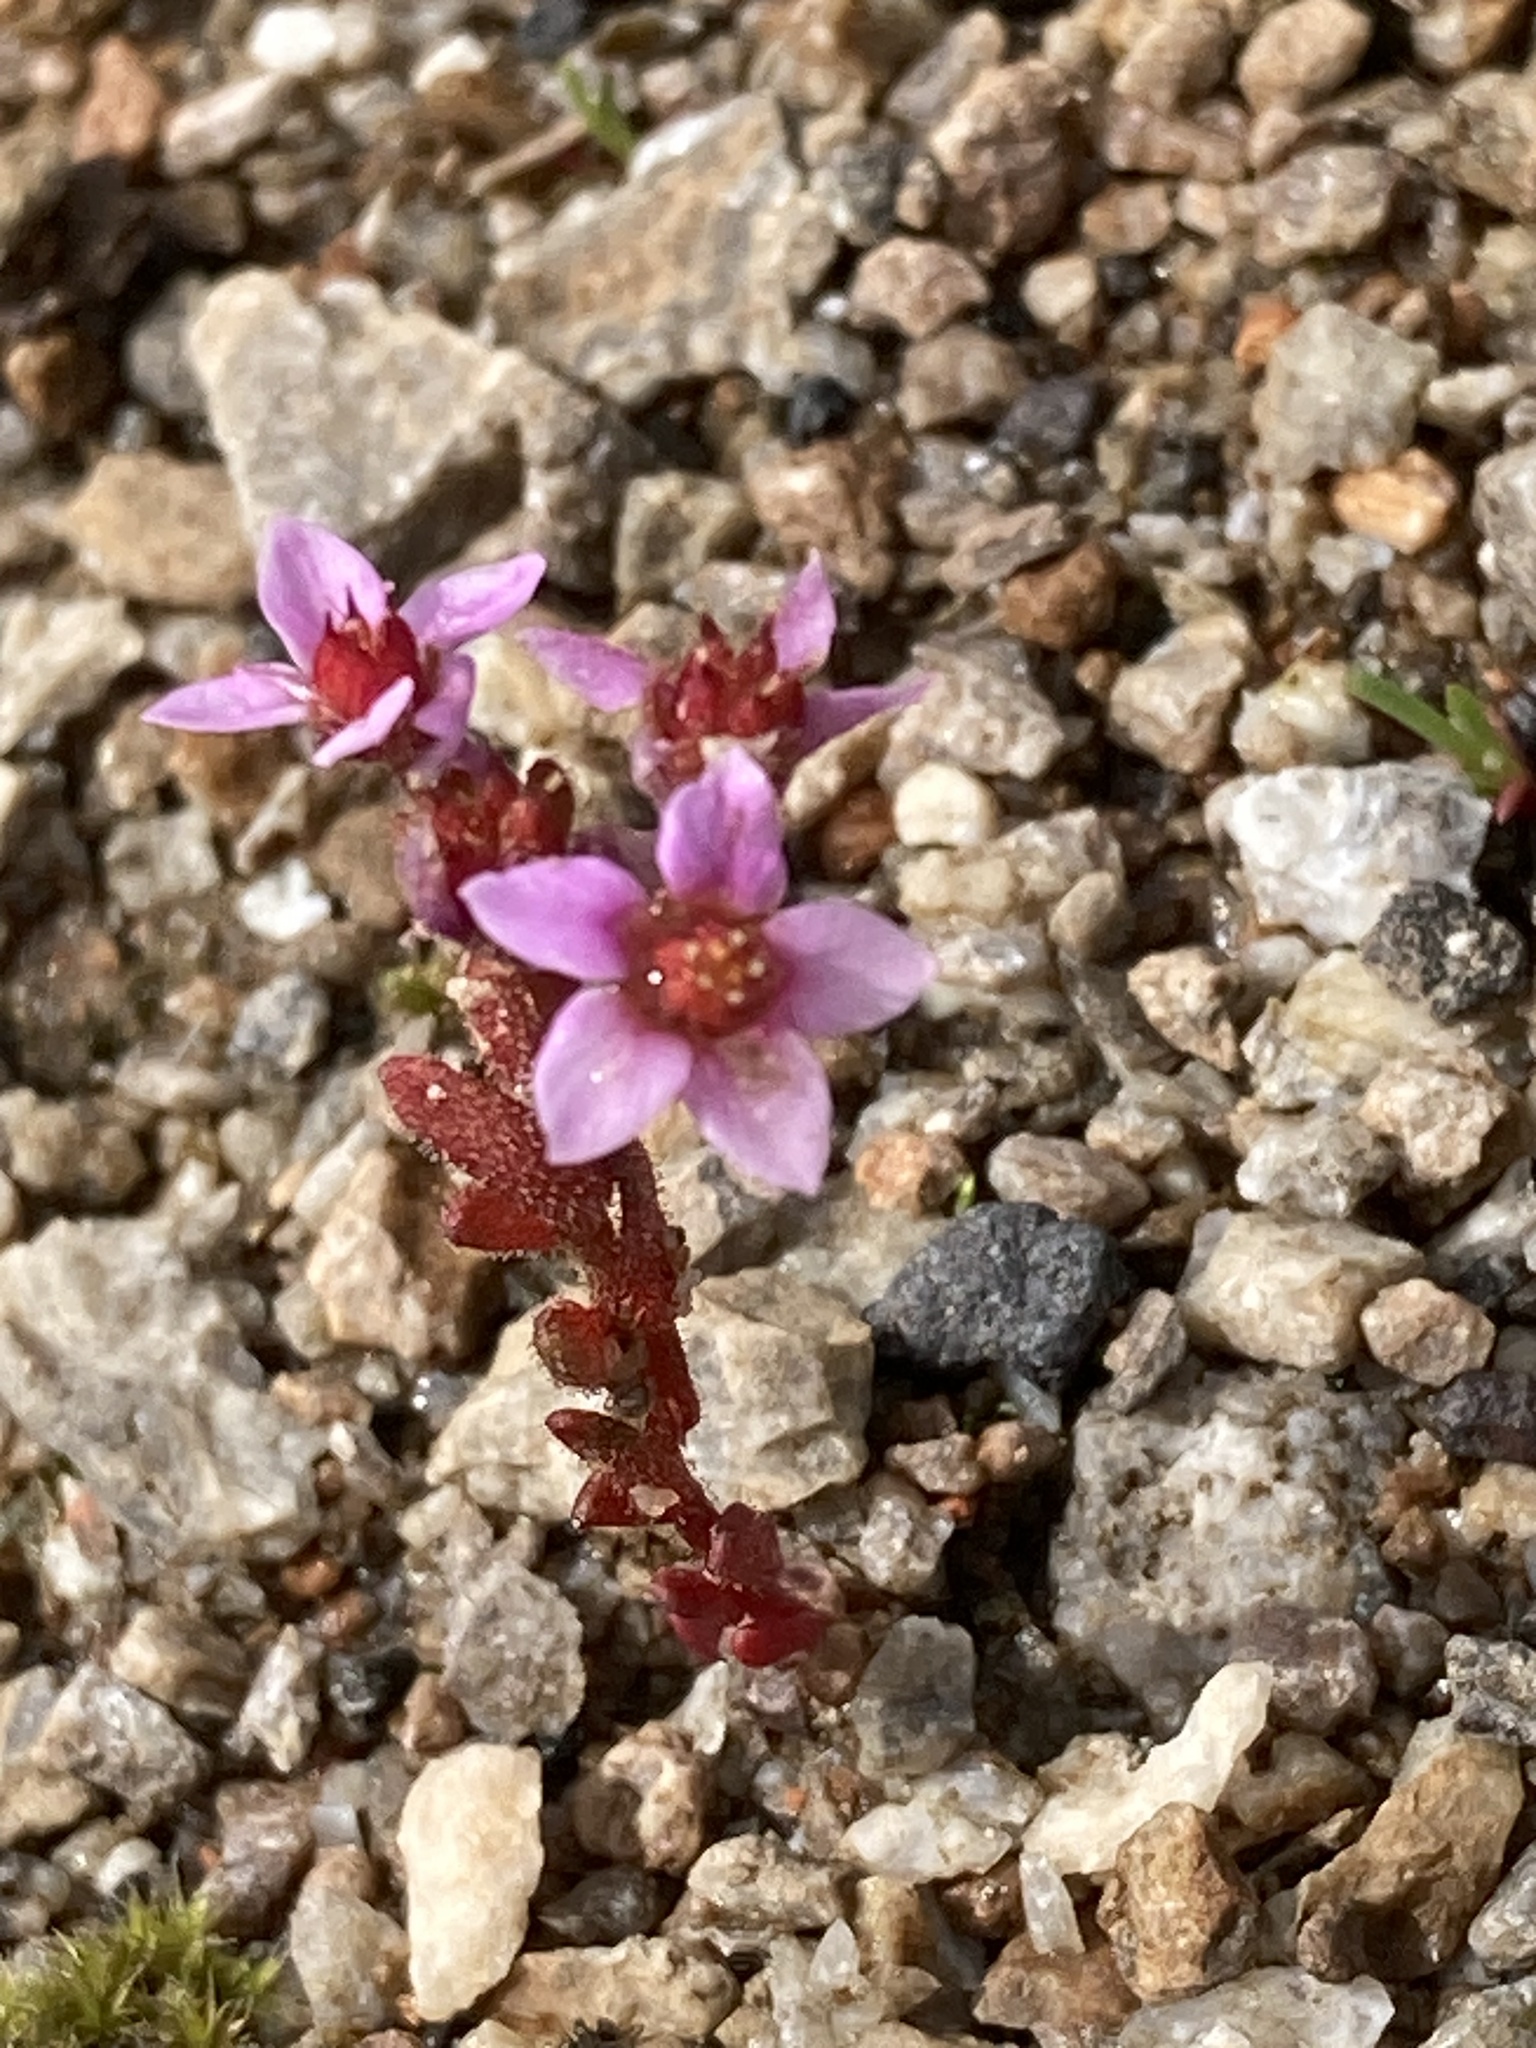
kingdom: Plantae
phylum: Tracheophyta
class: Magnoliopsida
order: Saxifragales
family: Crassulaceae
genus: Sedum
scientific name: Sedum villosum
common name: Hairy stonecrop
